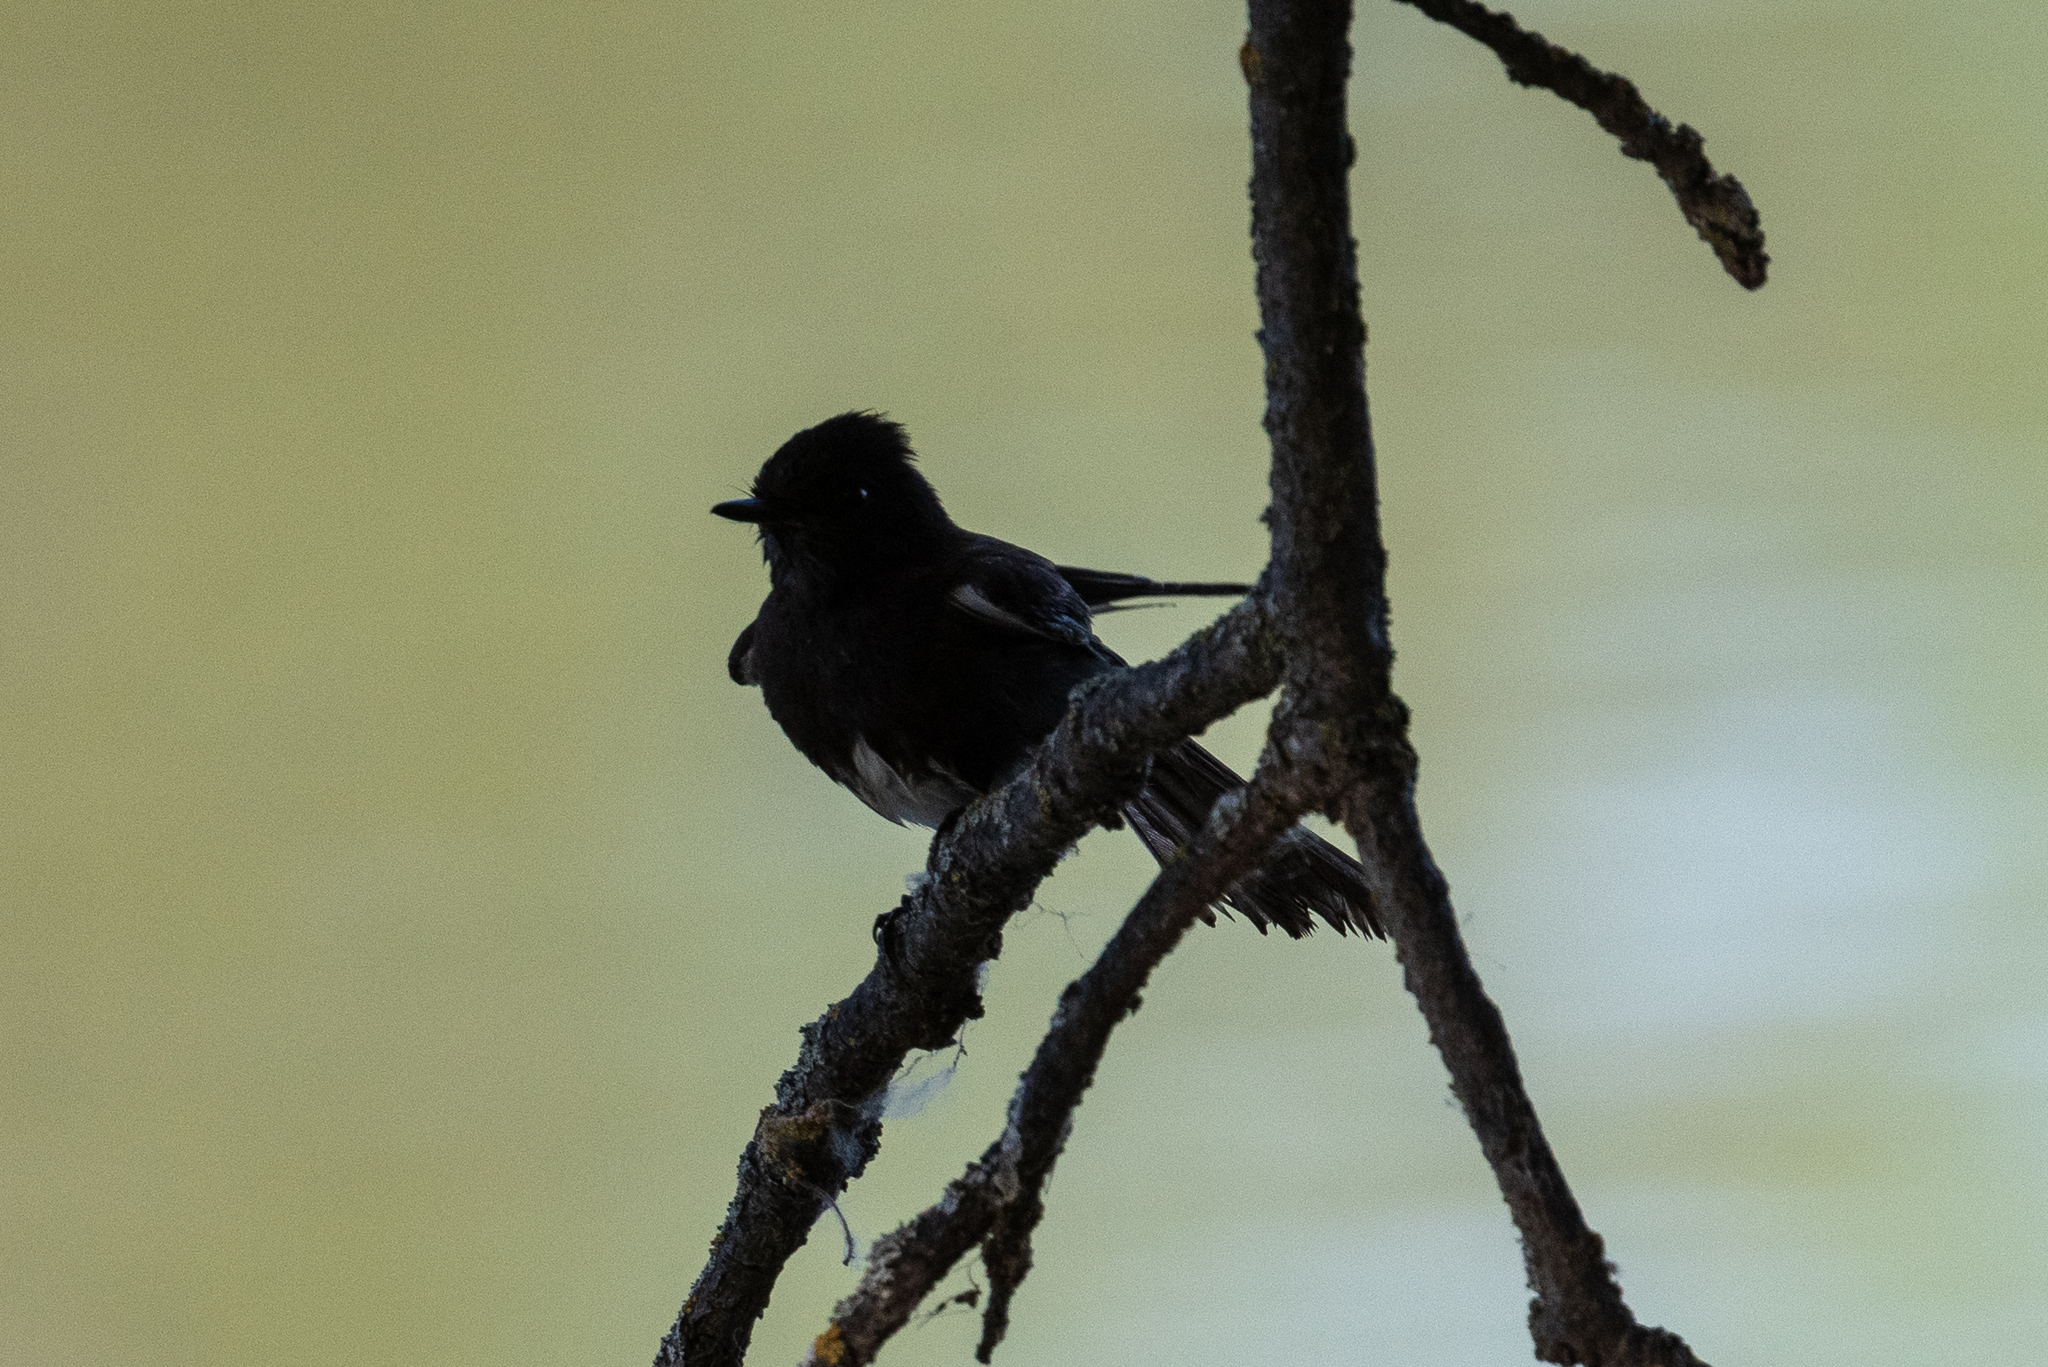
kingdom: Animalia
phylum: Chordata
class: Aves
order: Passeriformes
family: Tyrannidae
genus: Sayornis
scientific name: Sayornis nigricans
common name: Black phoebe
